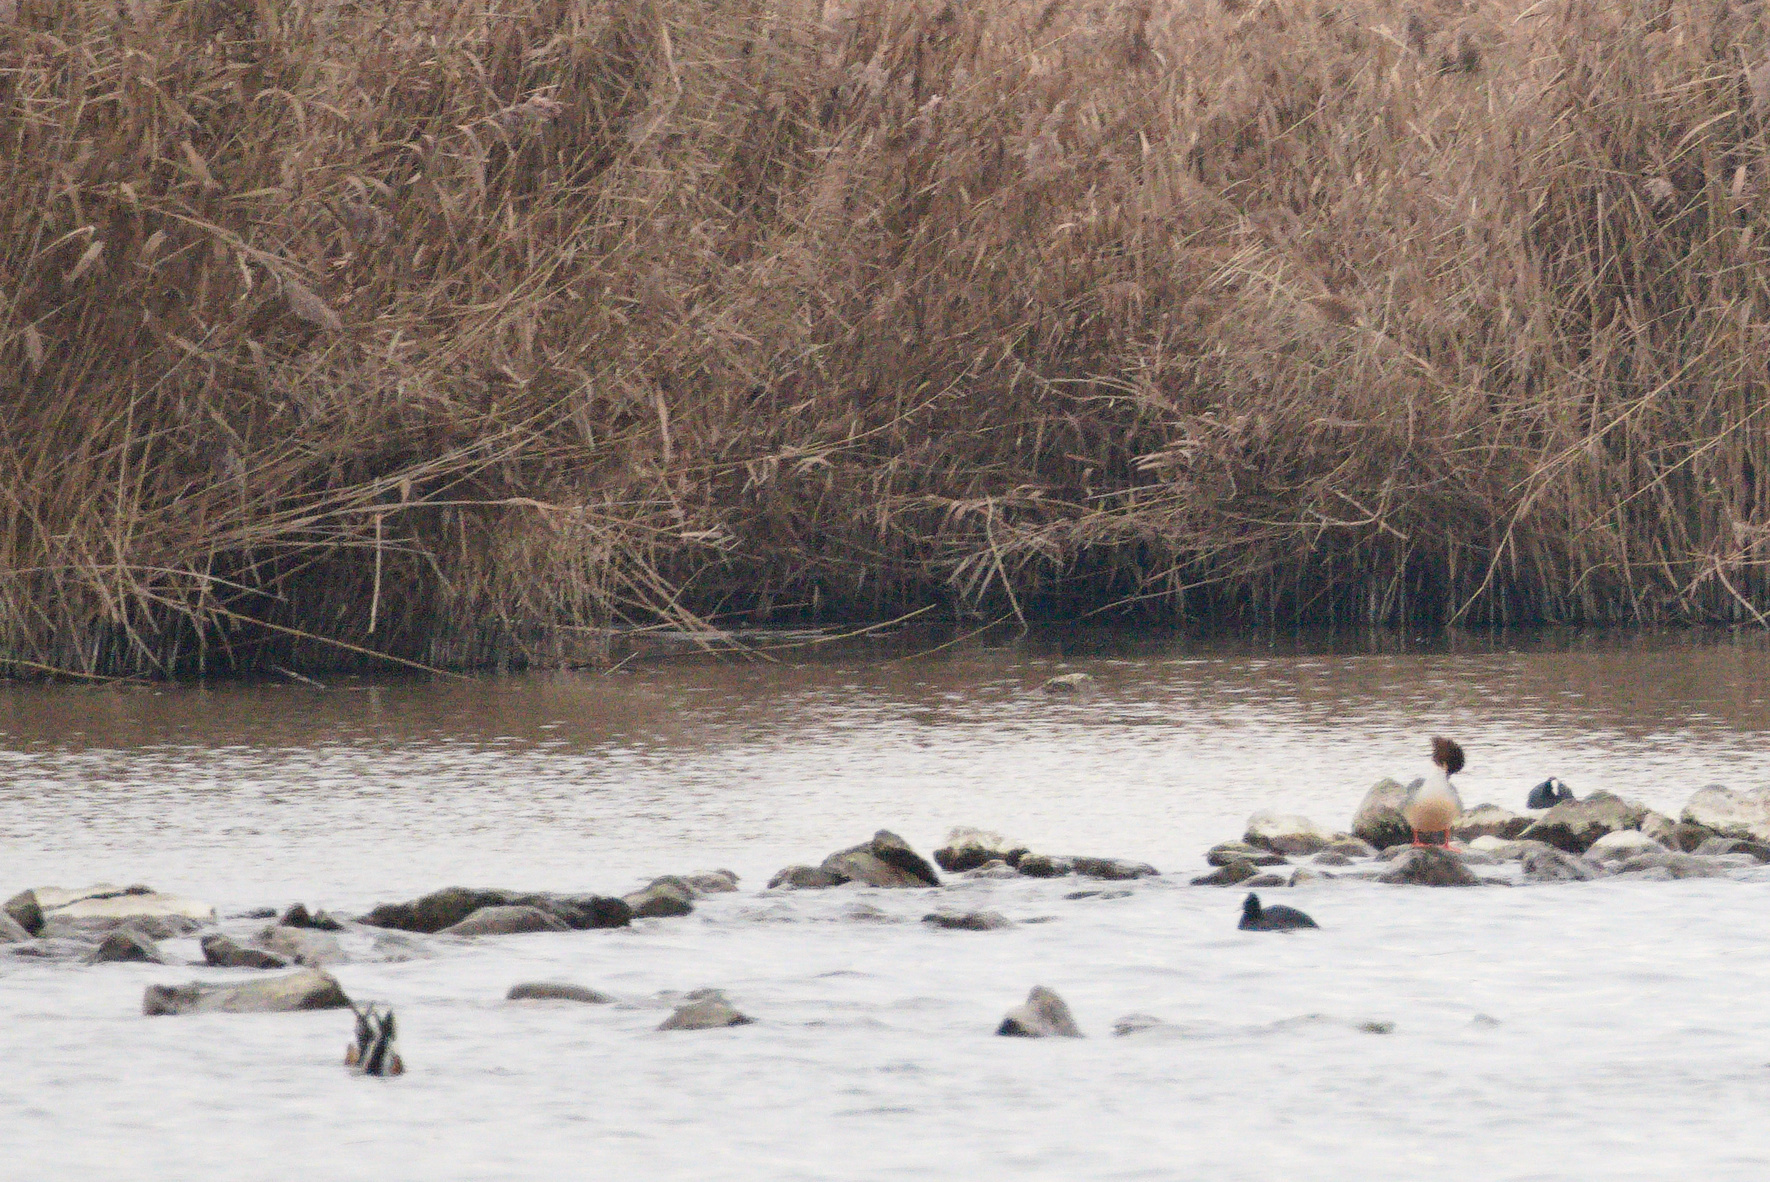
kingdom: Animalia
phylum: Chordata
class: Aves
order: Anseriformes
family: Anatidae
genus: Mergus
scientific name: Mergus merganser
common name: Common merganser
